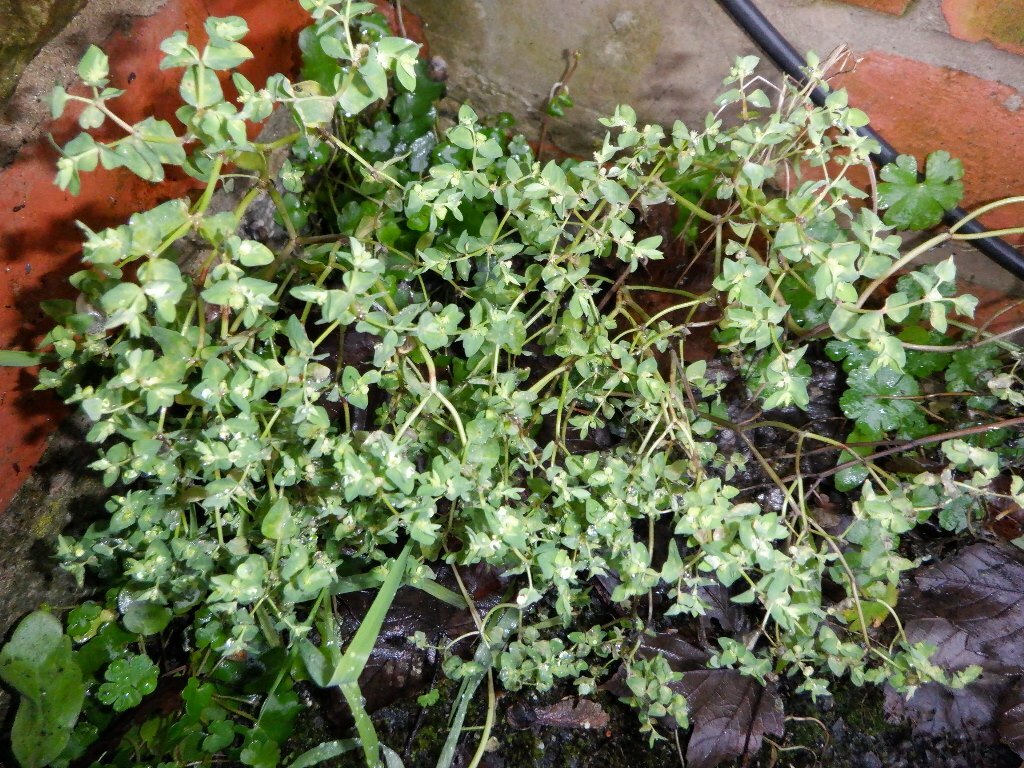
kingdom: Plantae
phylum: Tracheophyta
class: Magnoliopsida
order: Malpighiales
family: Euphorbiaceae
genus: Euphorbia
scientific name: Euphorbia peplus
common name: Petty spurge
